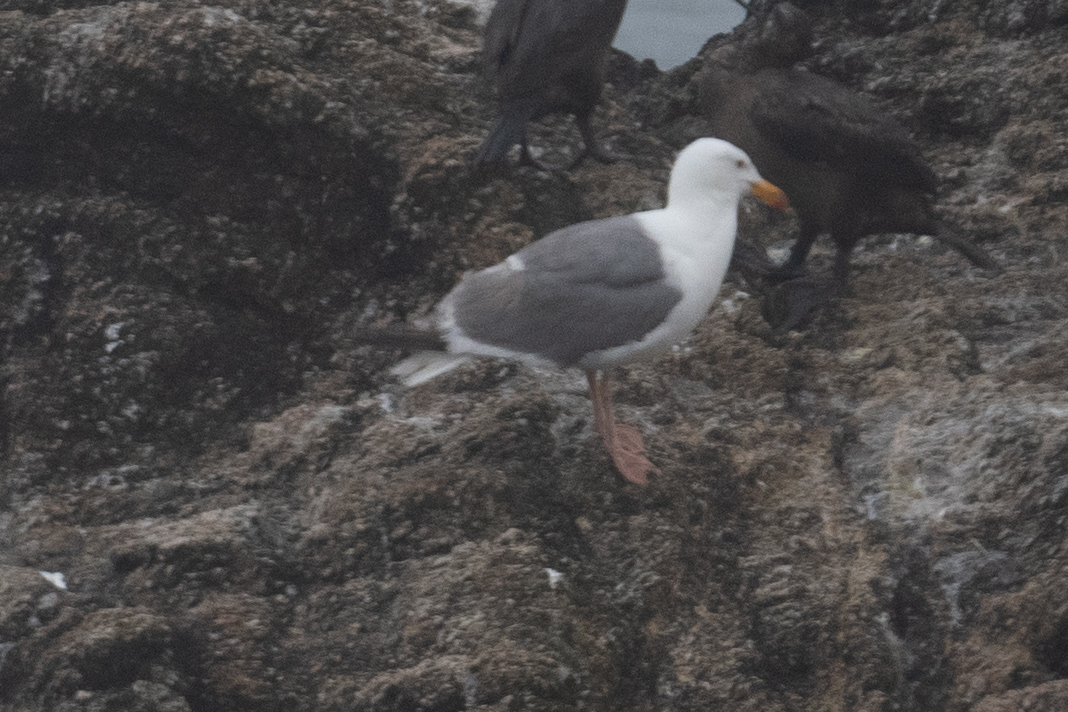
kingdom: Animalia
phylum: Chordata
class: Aves
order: Charadriiformes
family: Laridae
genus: Larus
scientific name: Larus occidentalis
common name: Western gull
